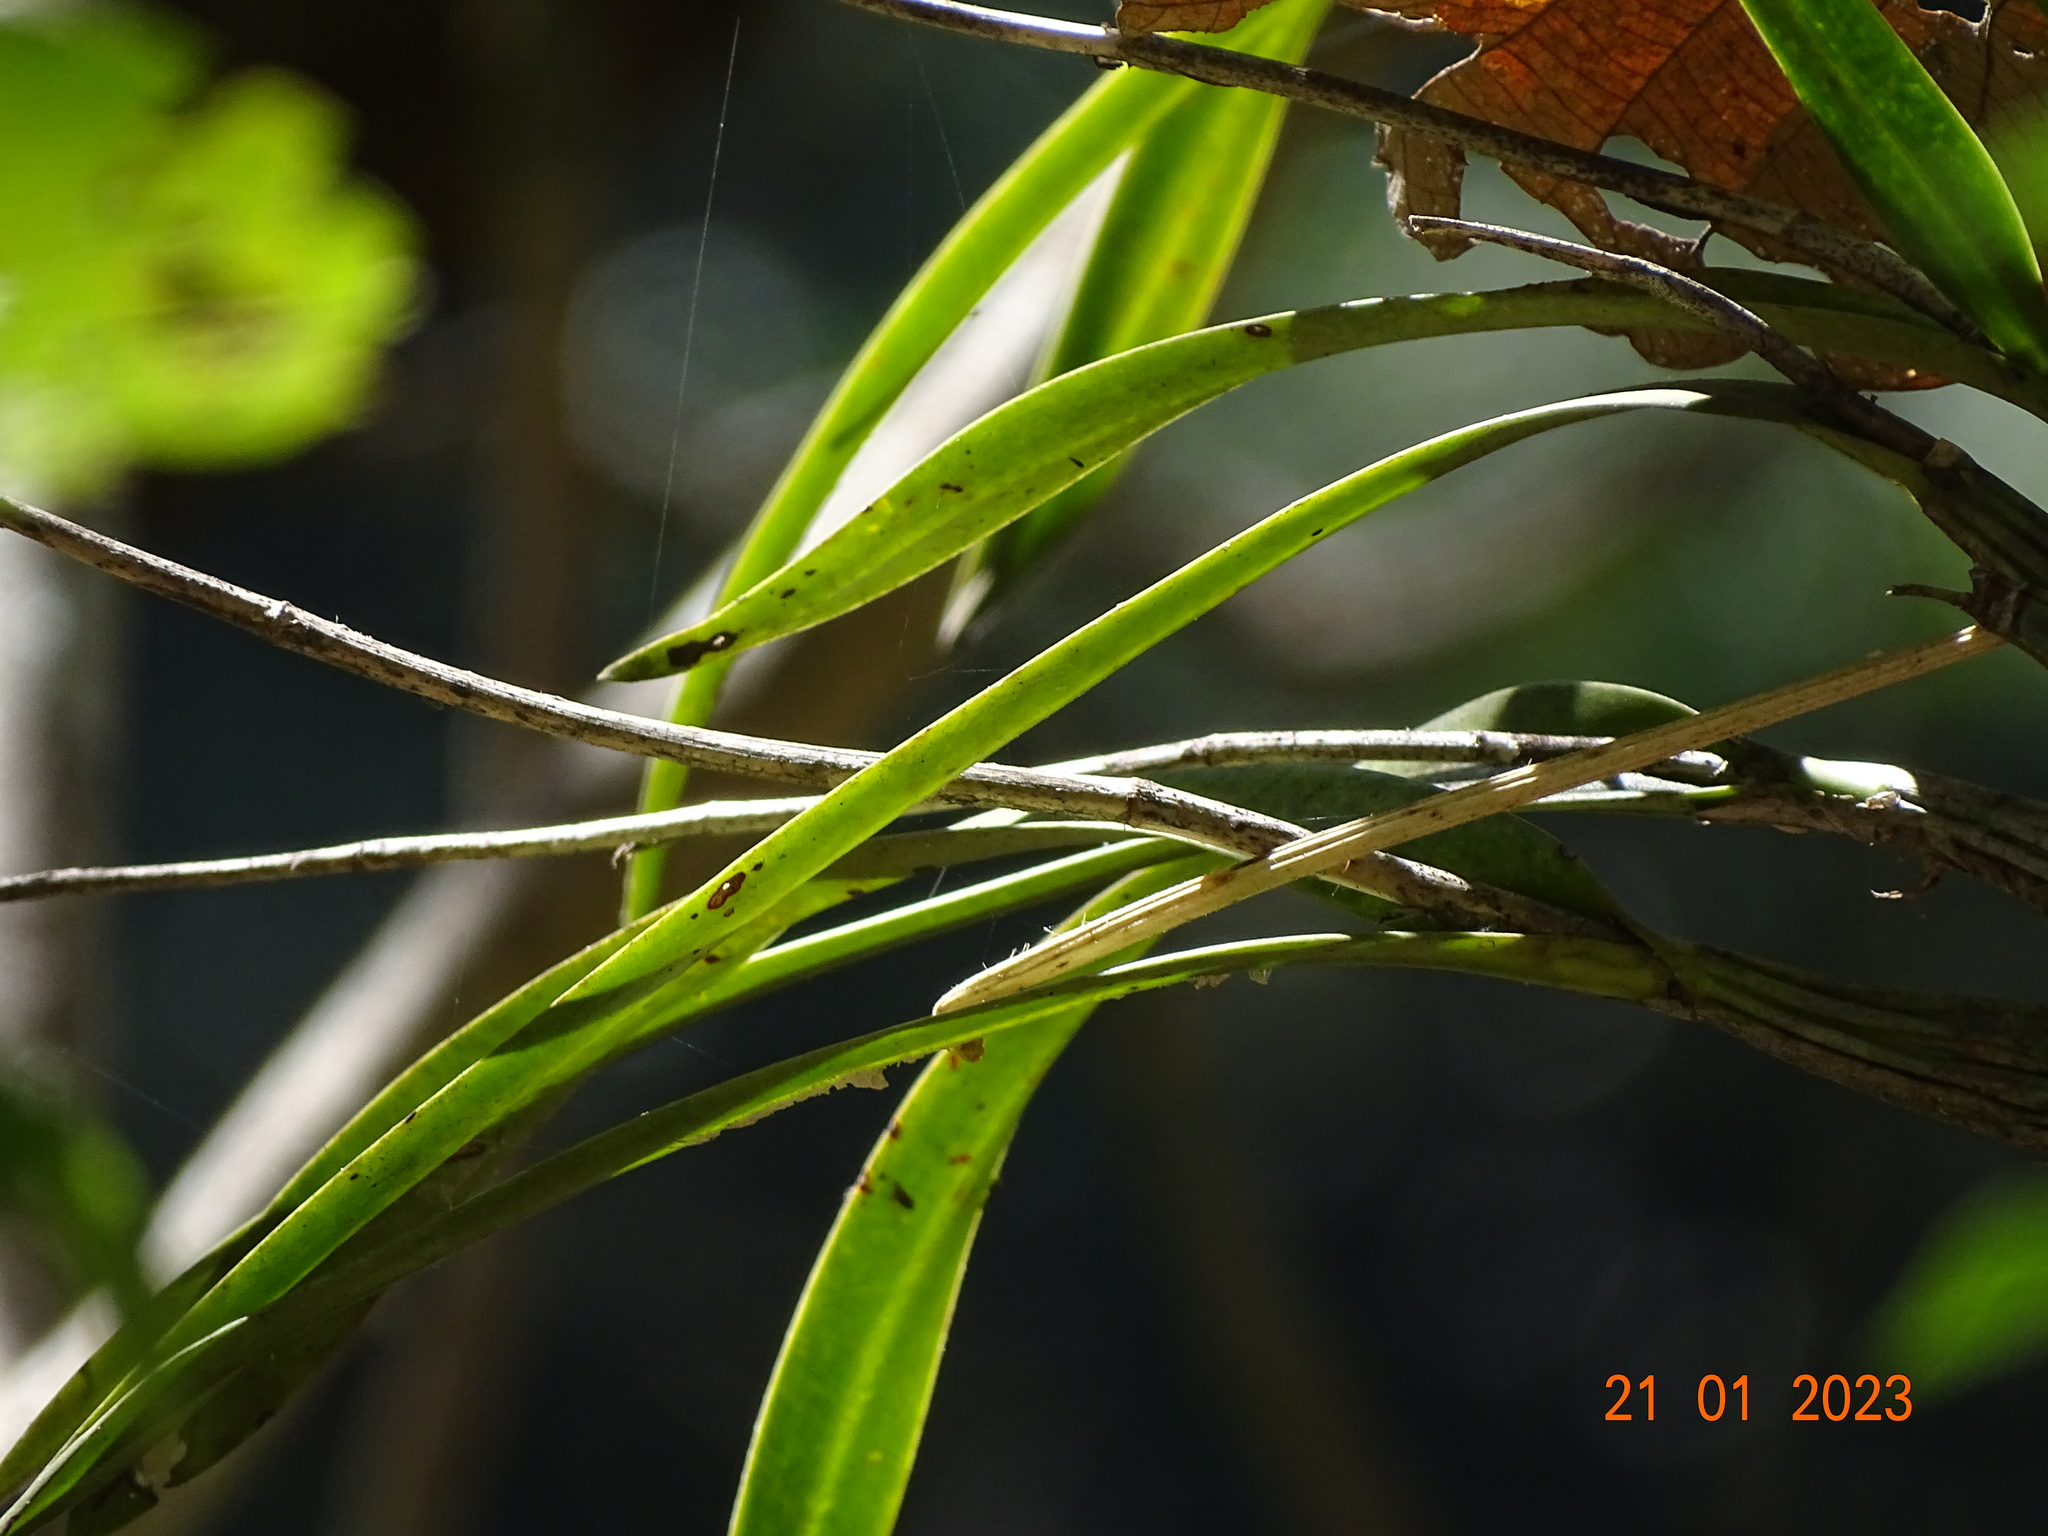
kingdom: Plantae
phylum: Tracheophyta
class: Liliopsida
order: Asparagales
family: Orchidaceae
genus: Laelia
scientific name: Laelia crawshayana
